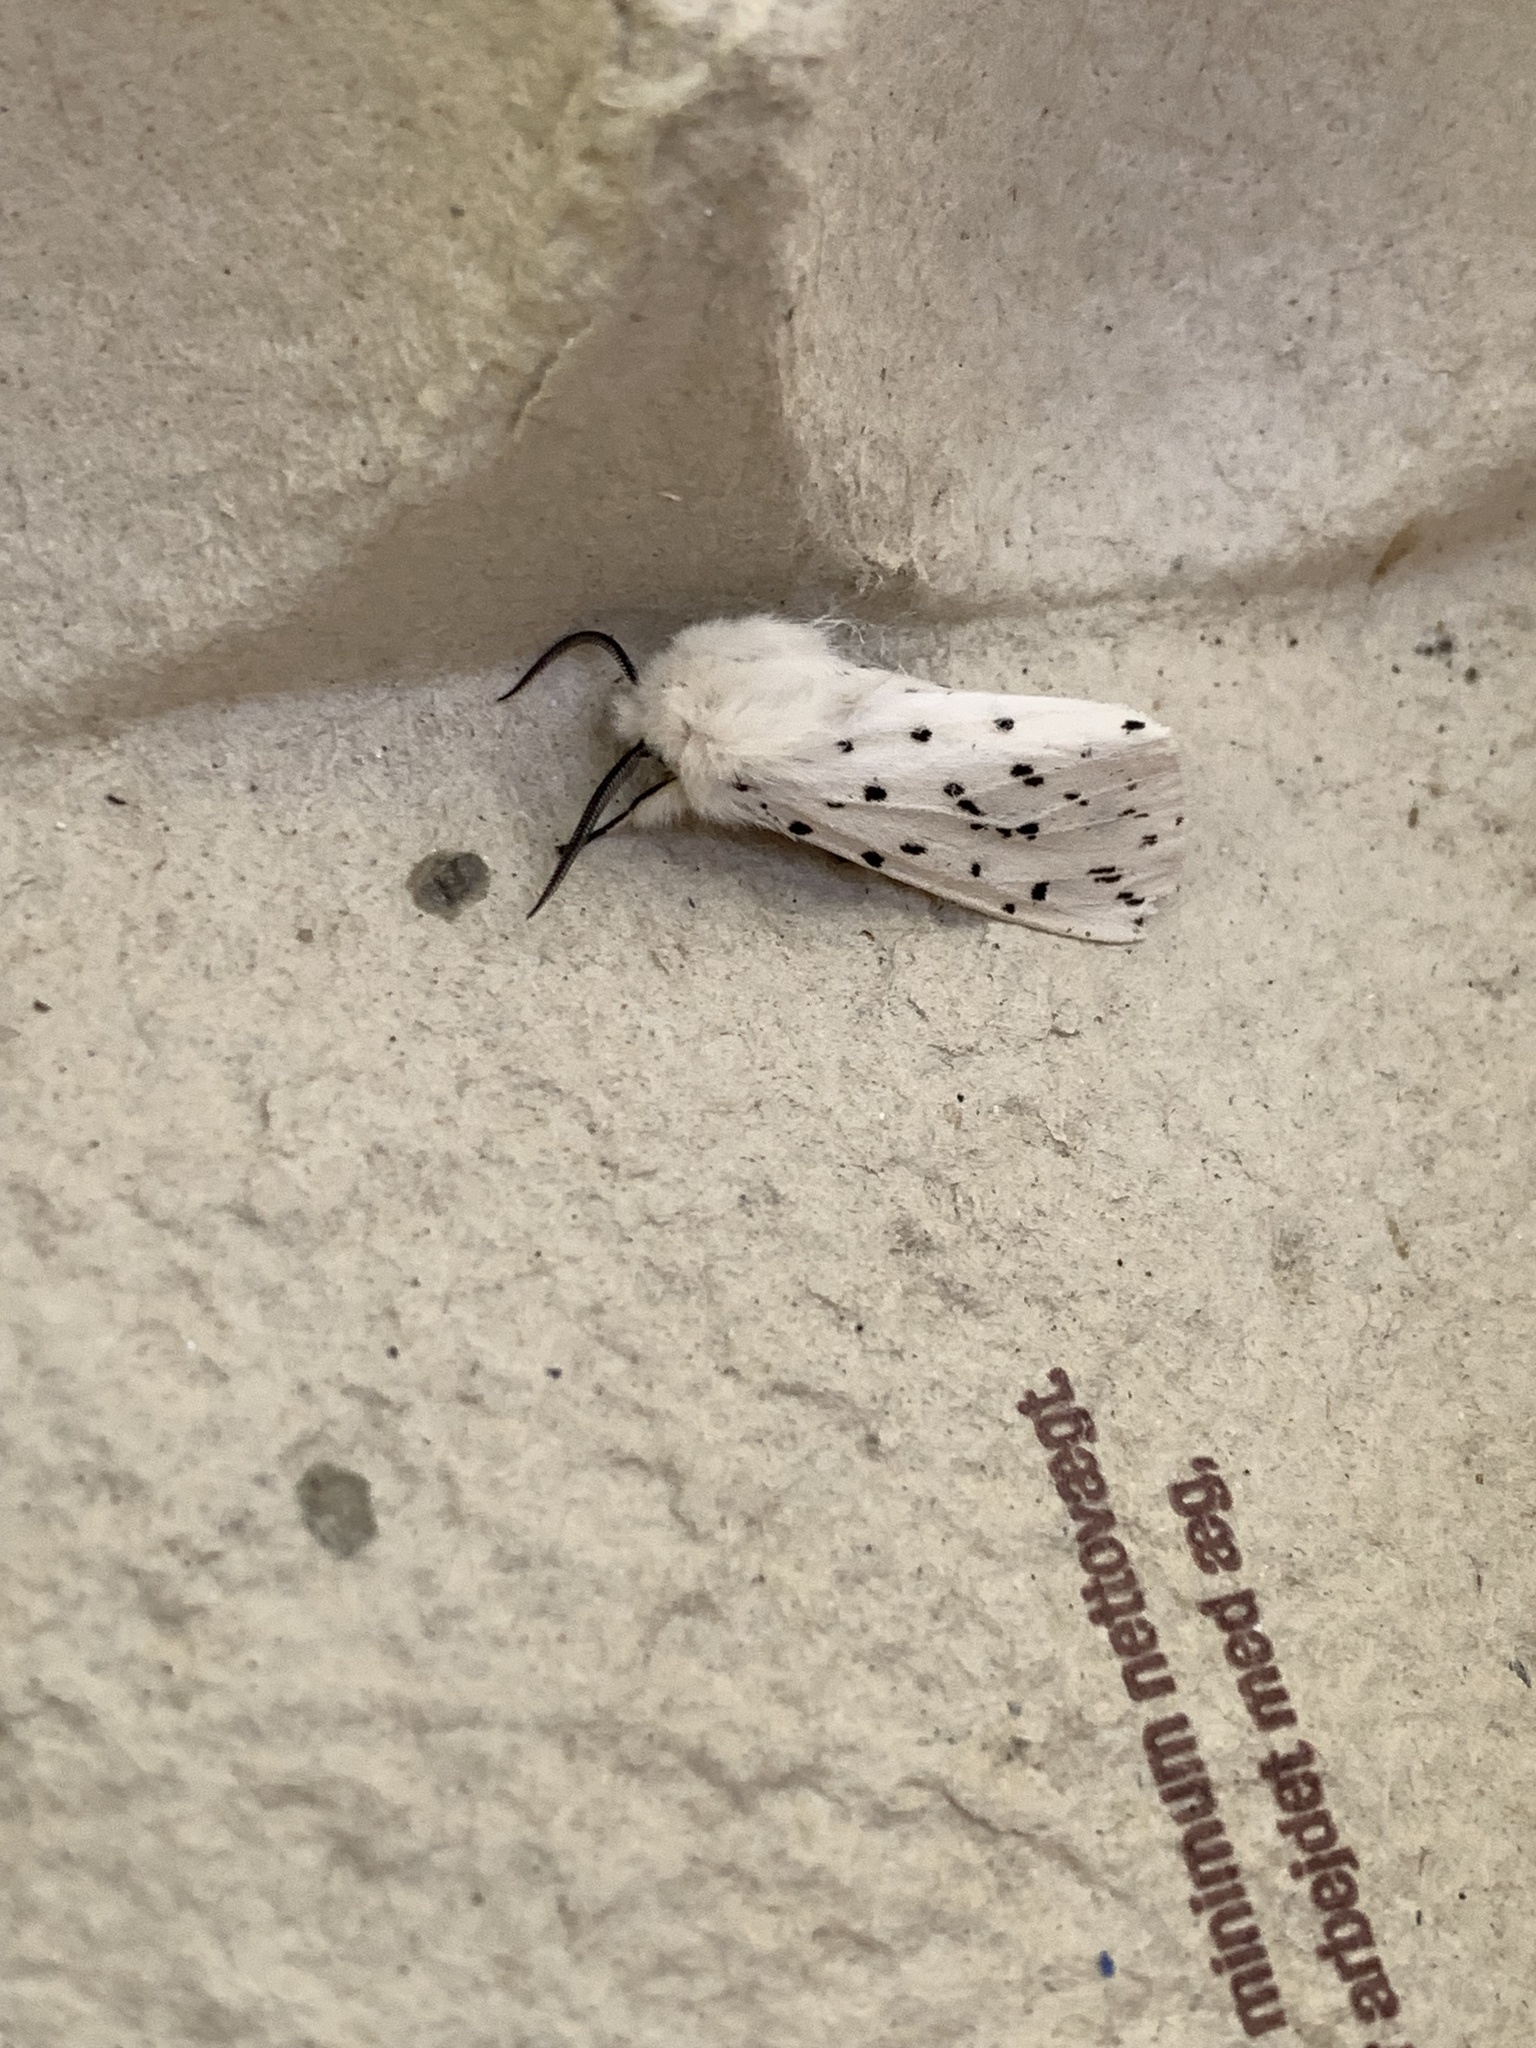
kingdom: Animalia
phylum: Arthropoda
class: Insecta
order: Lepidoptera
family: Erebidae
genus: Spilosoma
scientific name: Spilosoma lubricipeda
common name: White ermine
